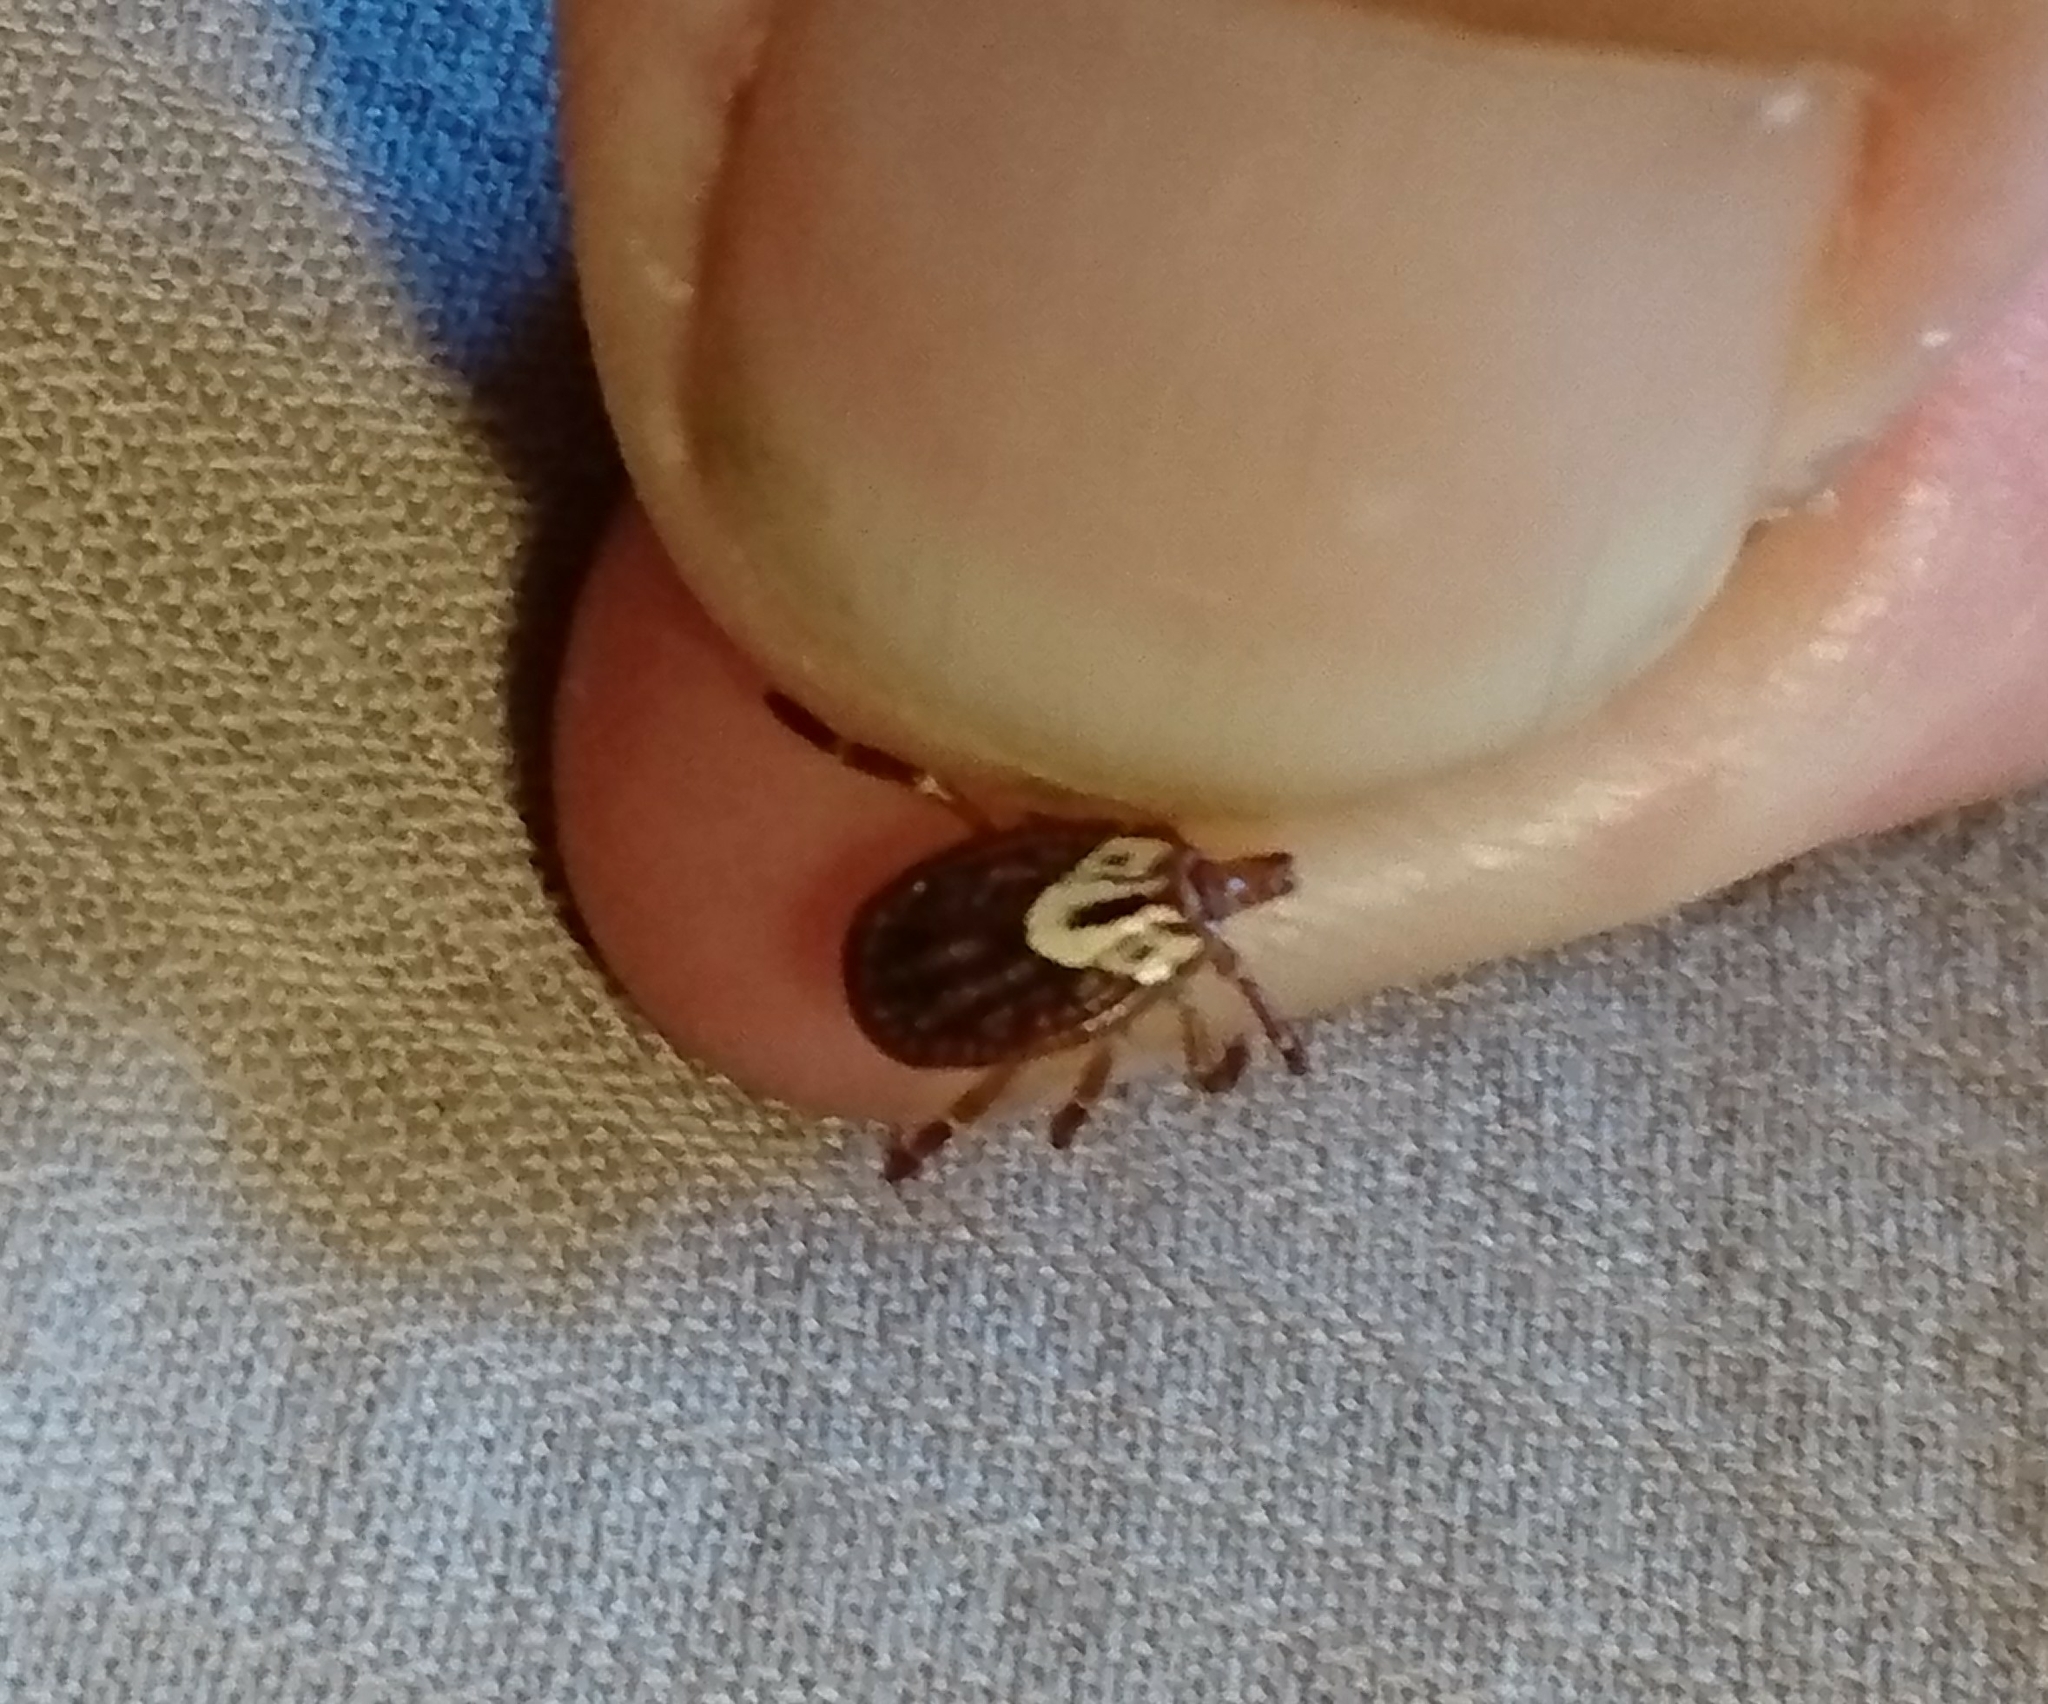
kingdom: Animalia
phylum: Arthropoda
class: Arachnida
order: Ixodida
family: Ixodidae
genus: Amblyomma
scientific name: Amblyomma maculatum
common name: Gulf coast tick
